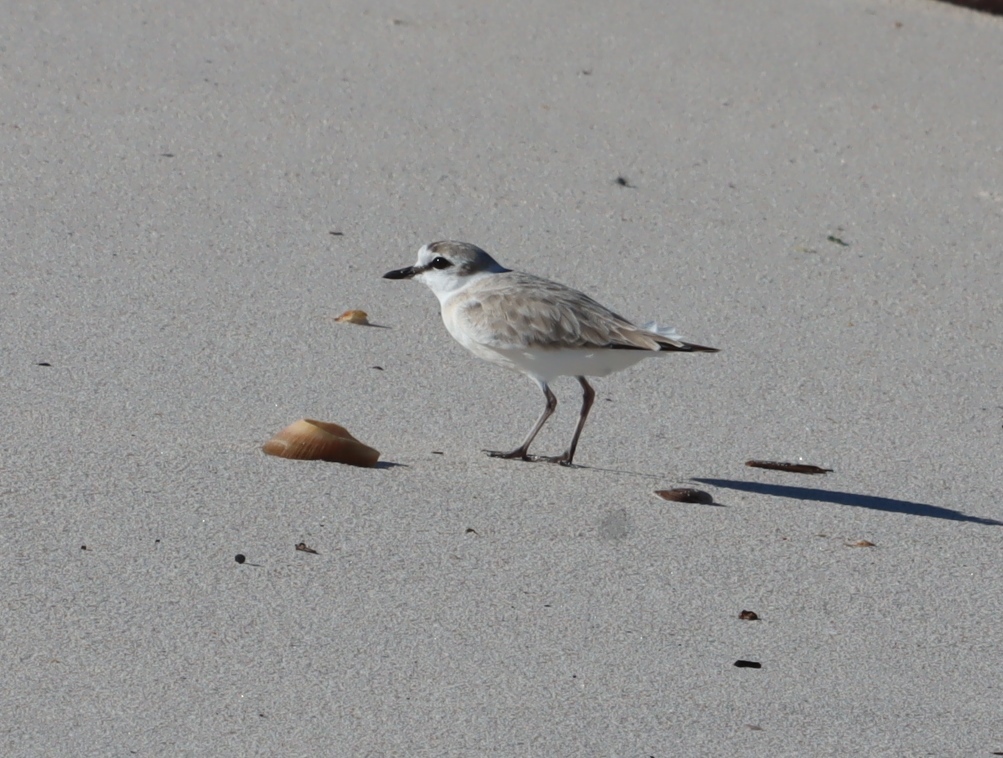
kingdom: Animalia
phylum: Chordata
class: Aves
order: Charadriiformes
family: Charadriidae
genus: Anarhynchus
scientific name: Anarhynchus
